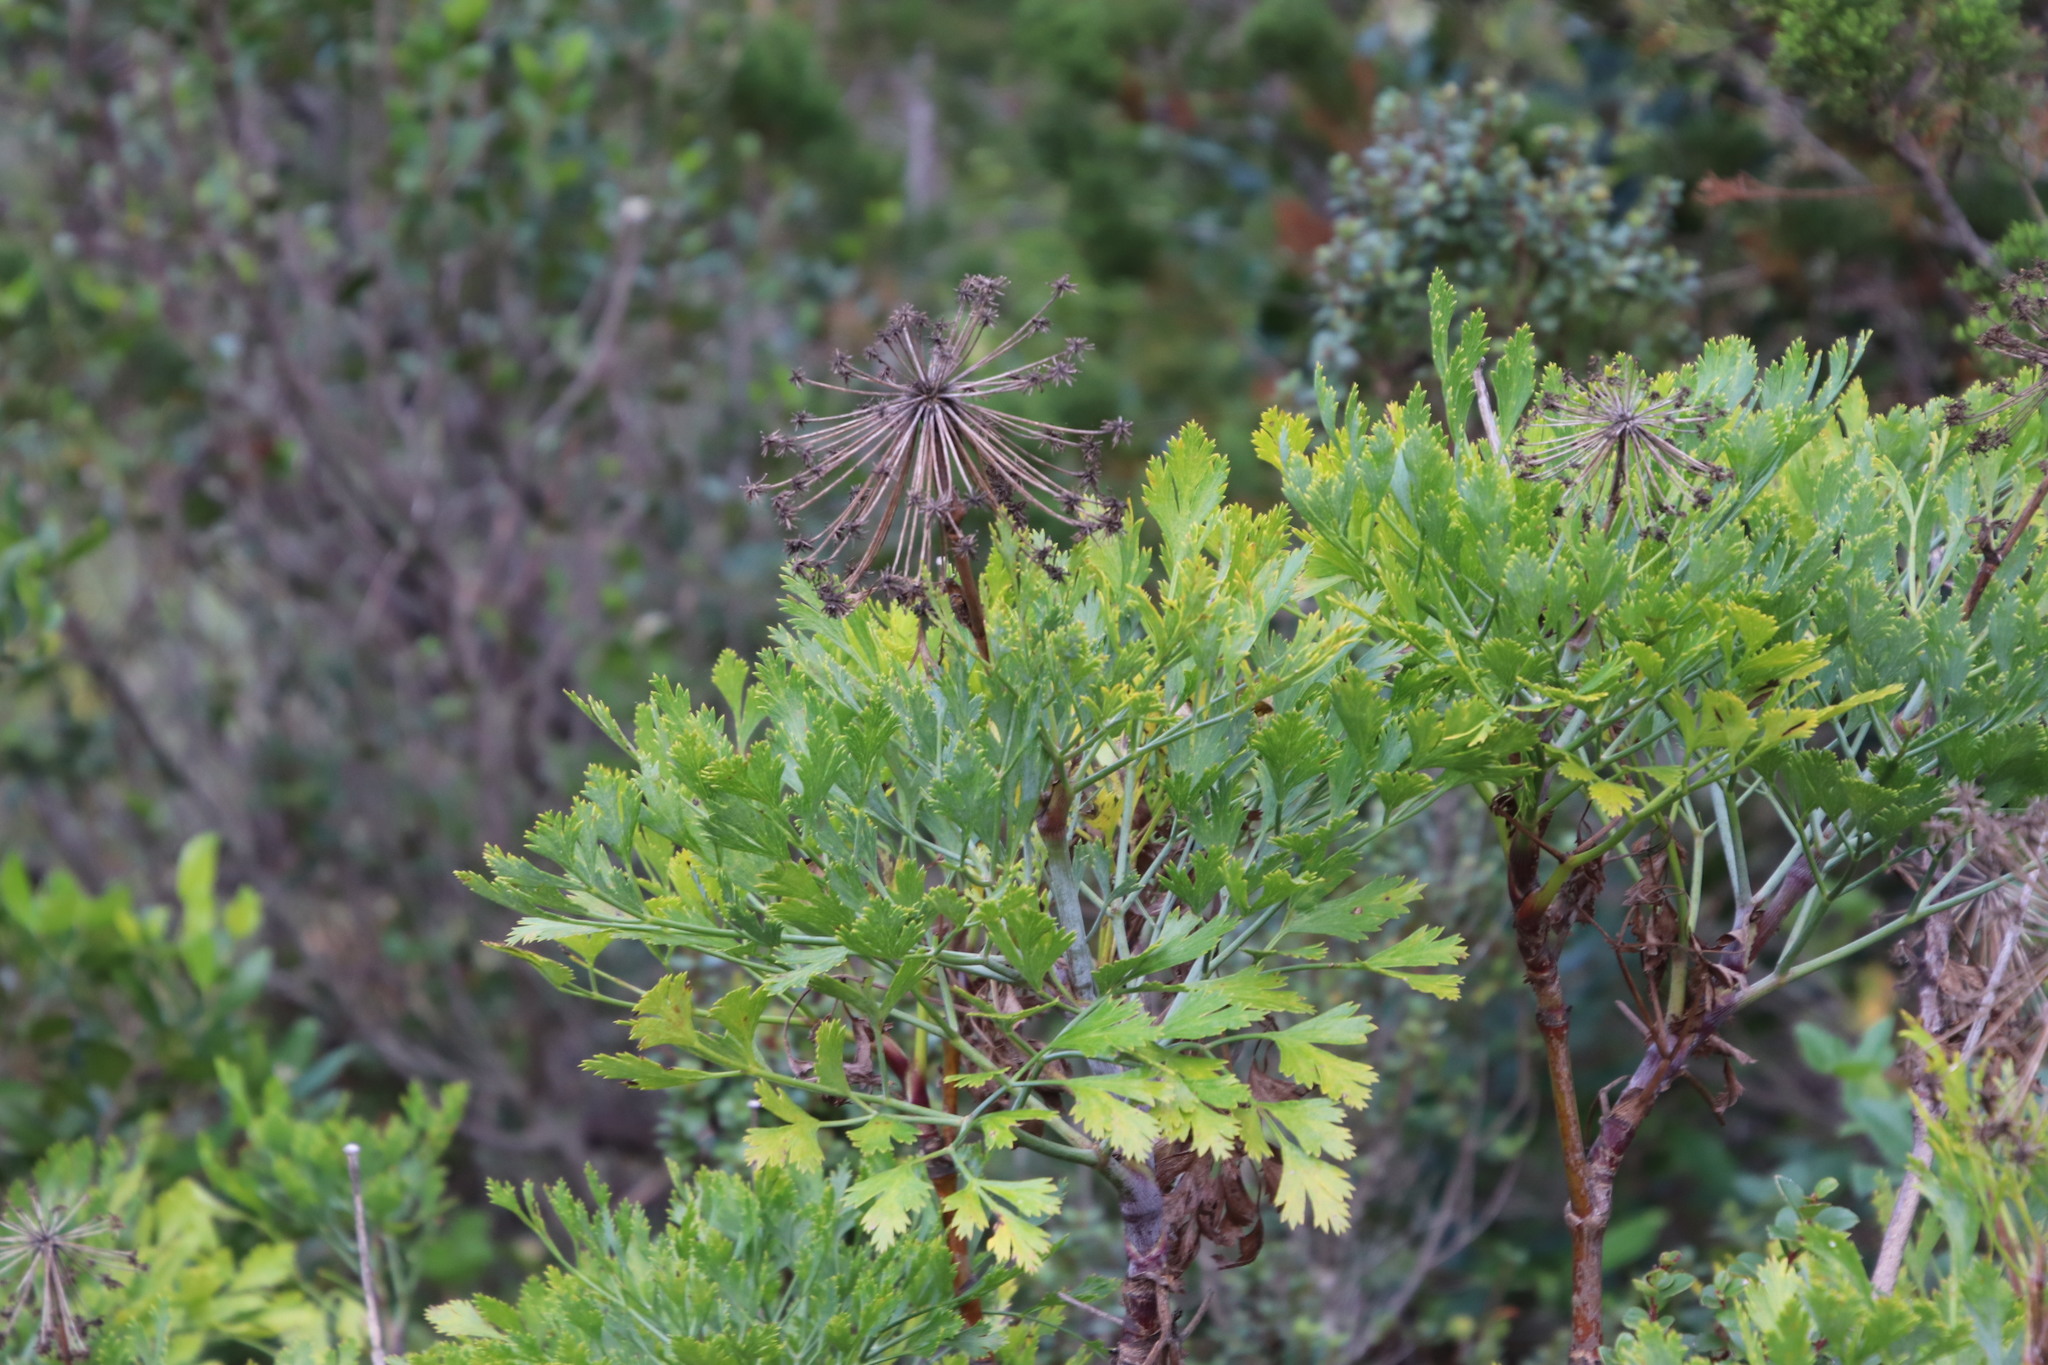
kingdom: Plantae
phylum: Tracheophyta
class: Magnoliopsida
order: Apiales
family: Apiaceae
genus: Notobubon
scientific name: Notobubon galbanum
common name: Blisterbush
